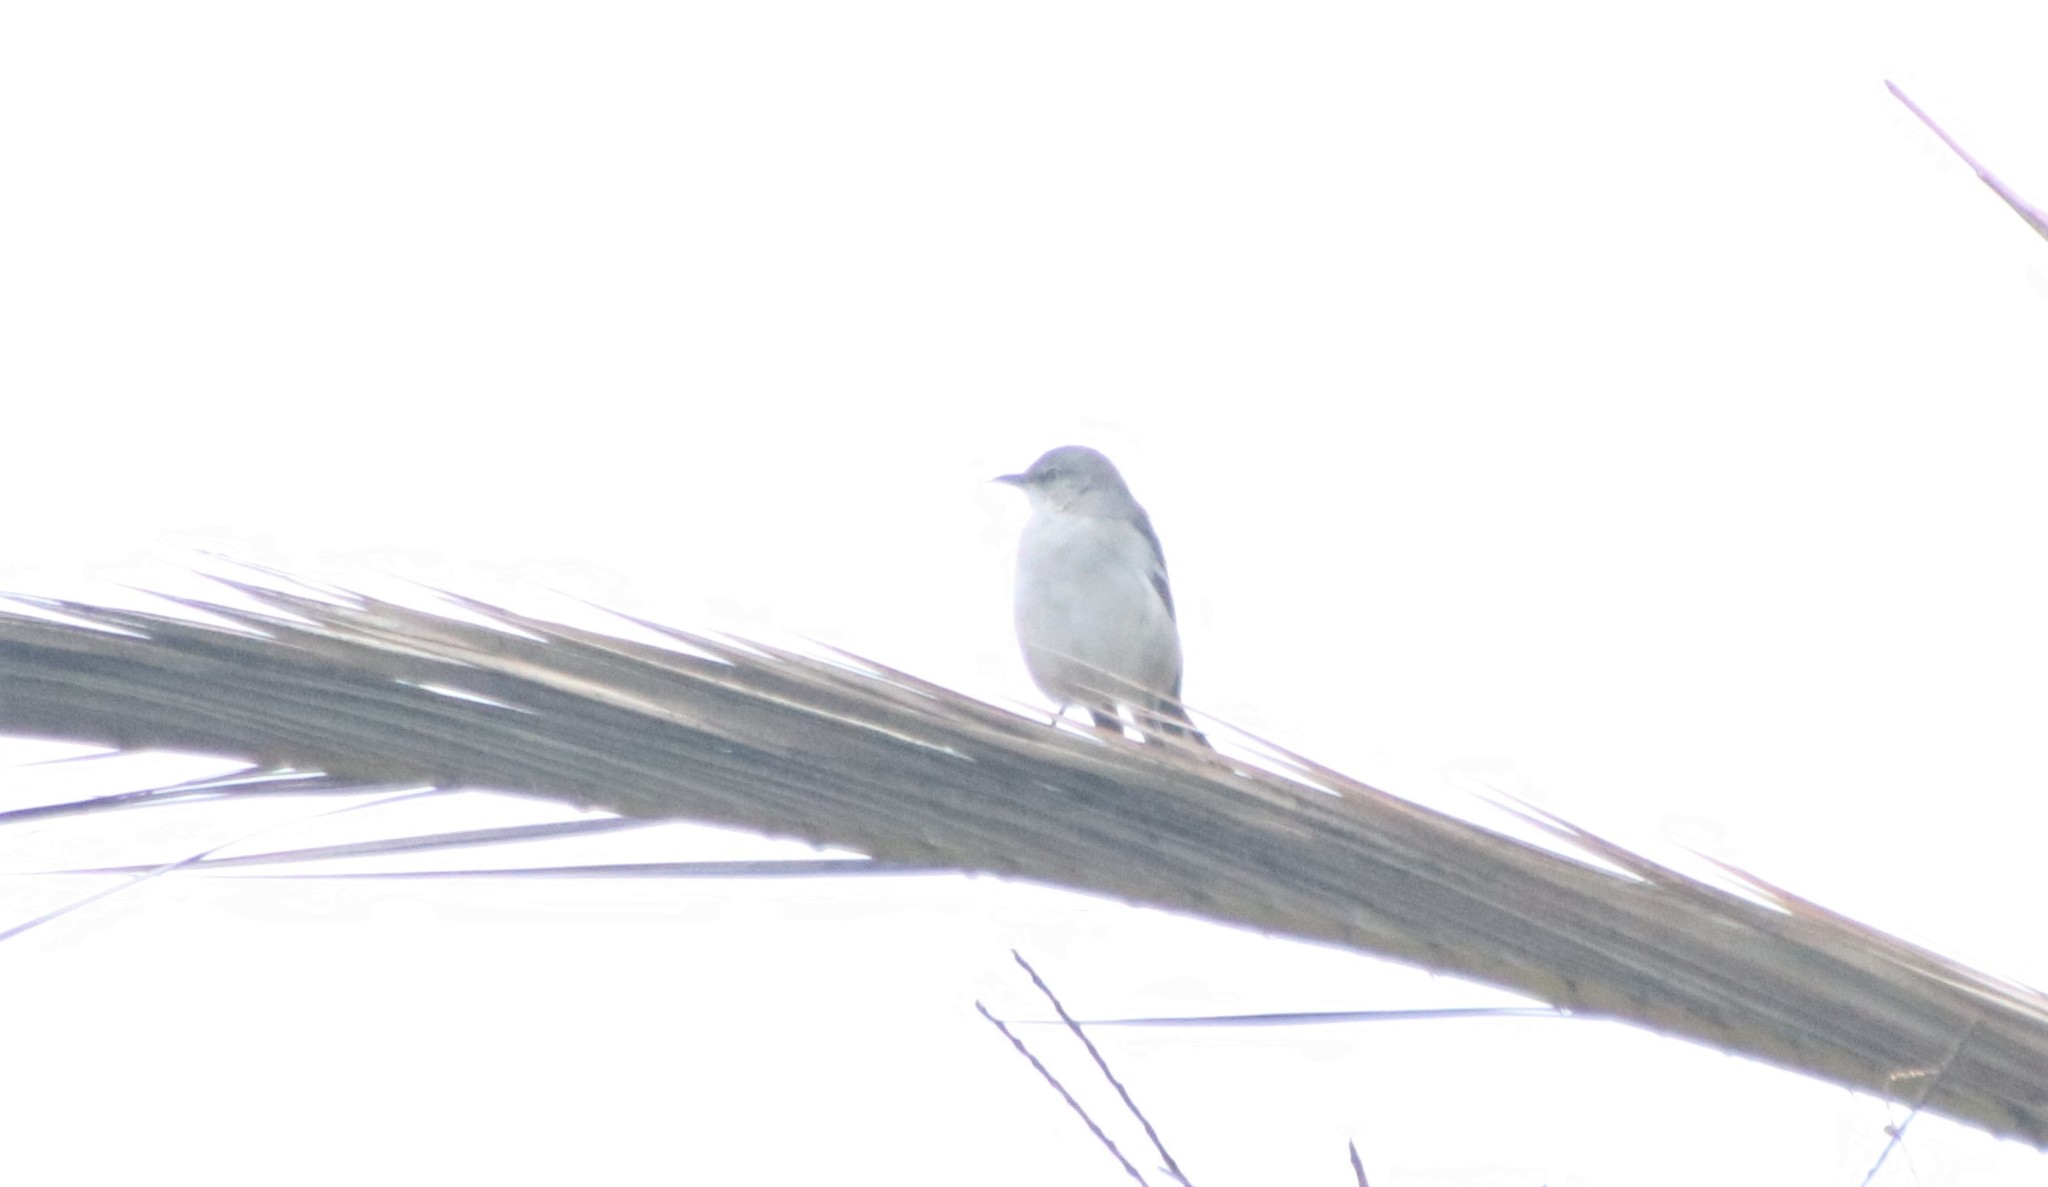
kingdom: Animalia
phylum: Chordata
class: Aves
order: Passeriformes
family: Mimidae
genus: Mimus
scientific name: Mimus polyglottos
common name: Northern mockingbird
